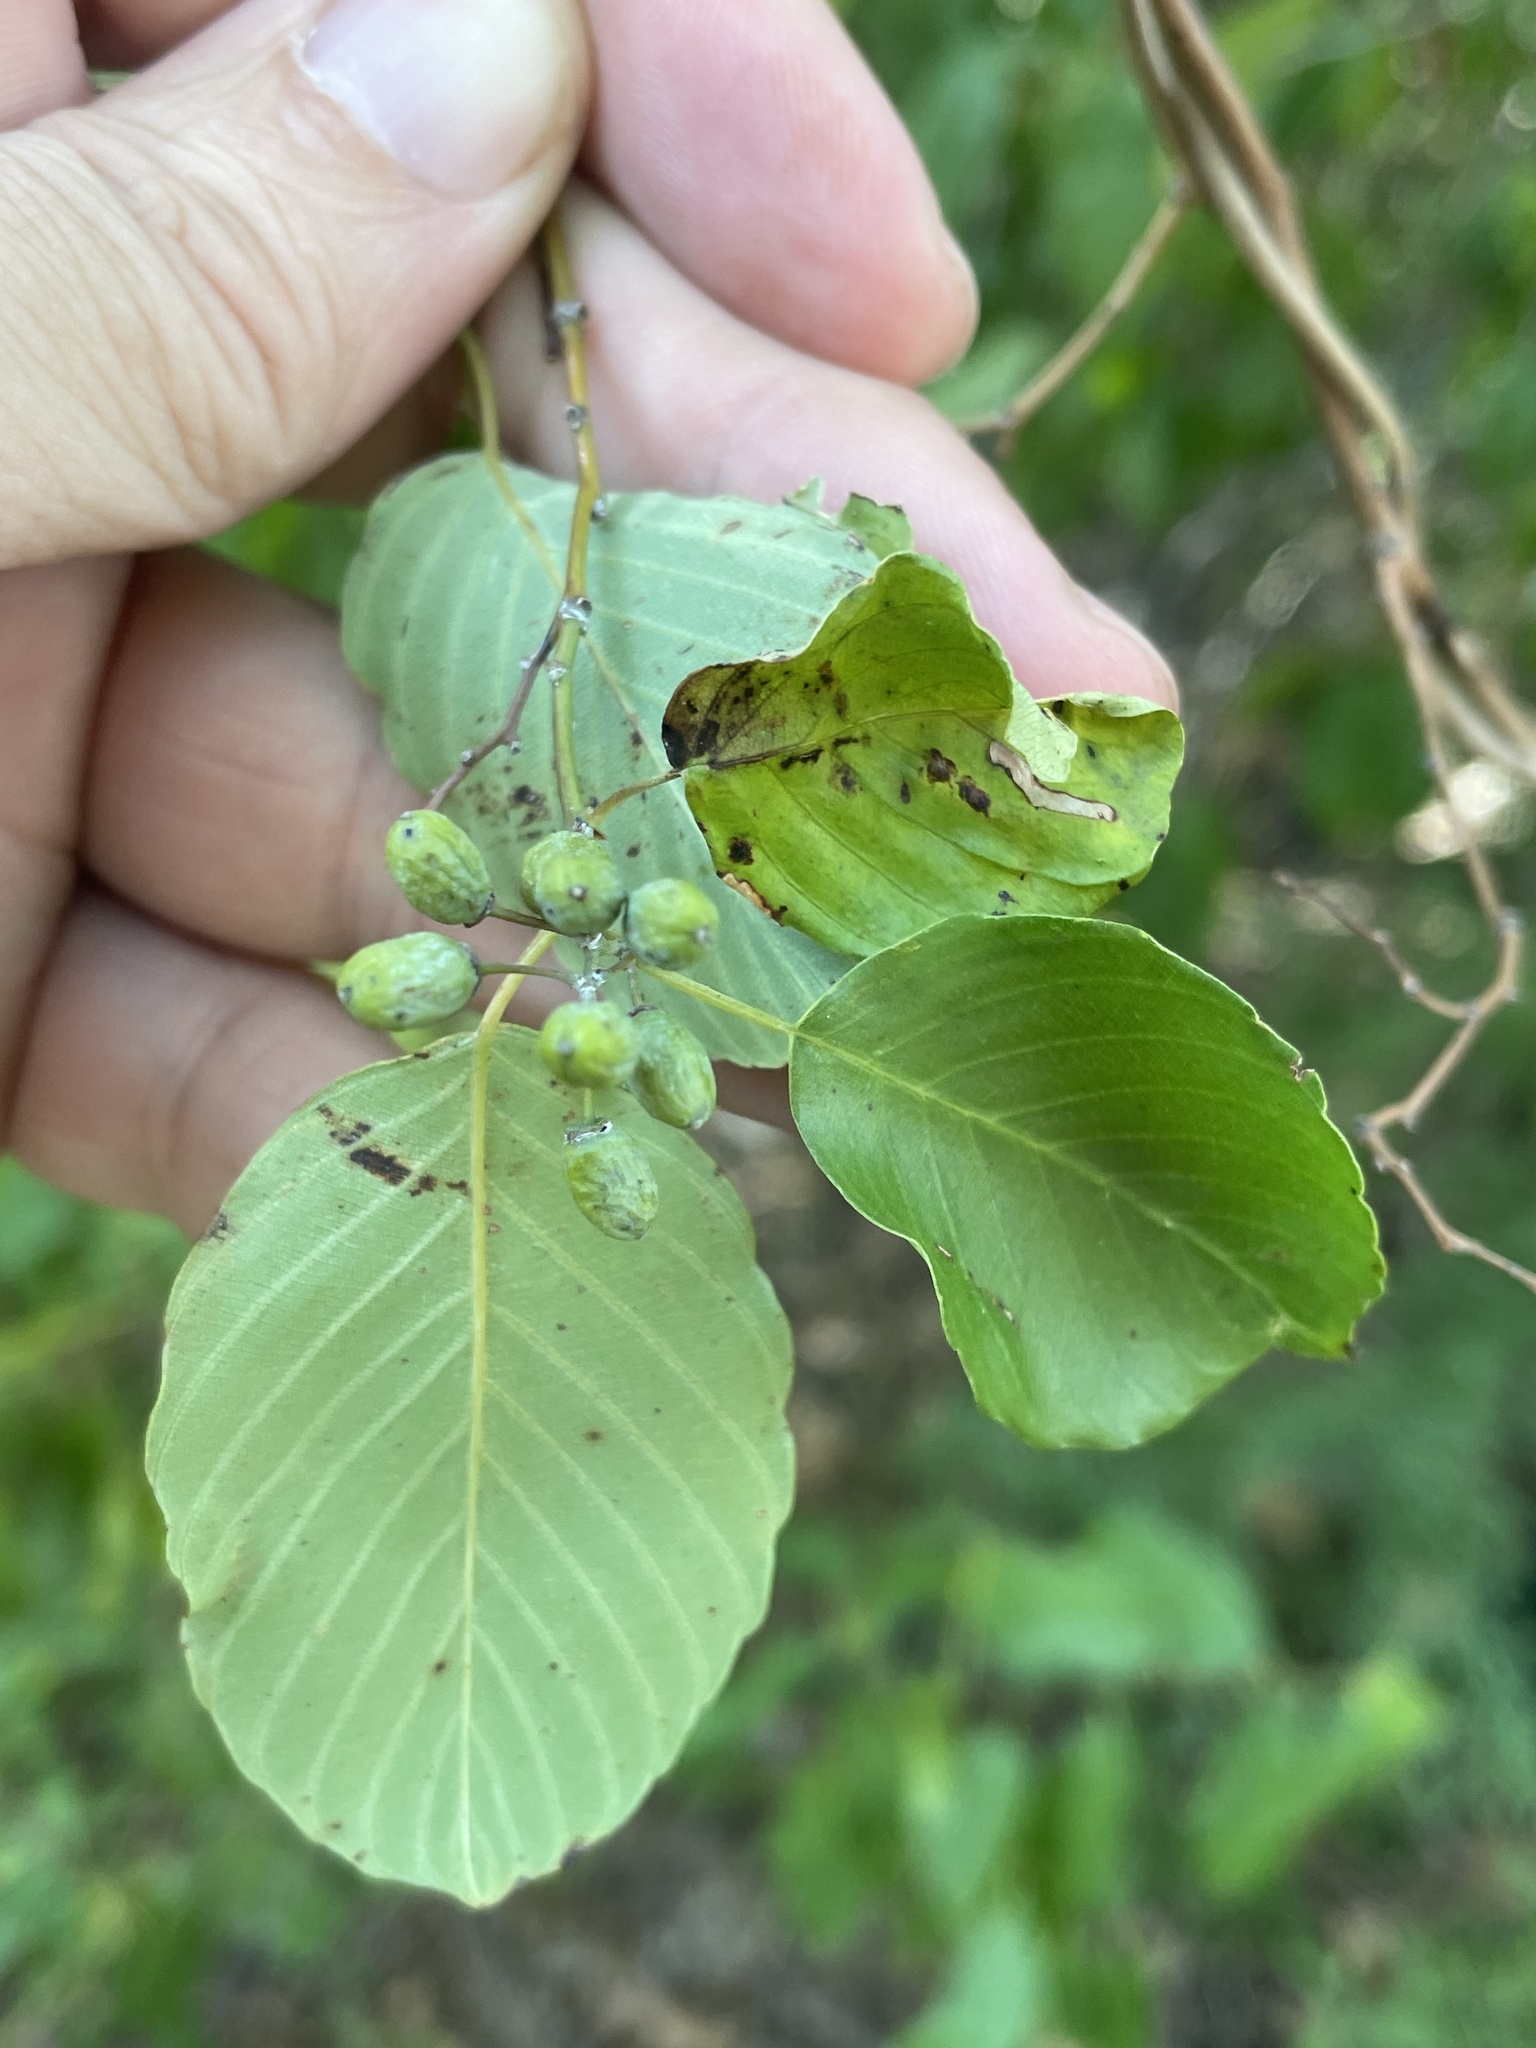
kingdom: Plantae
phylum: Tracheophyta
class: Magnoliopsida
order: Rosales
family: Rhamnaceae
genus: Berchemia
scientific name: Berchemia scandens
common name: Supplejack
